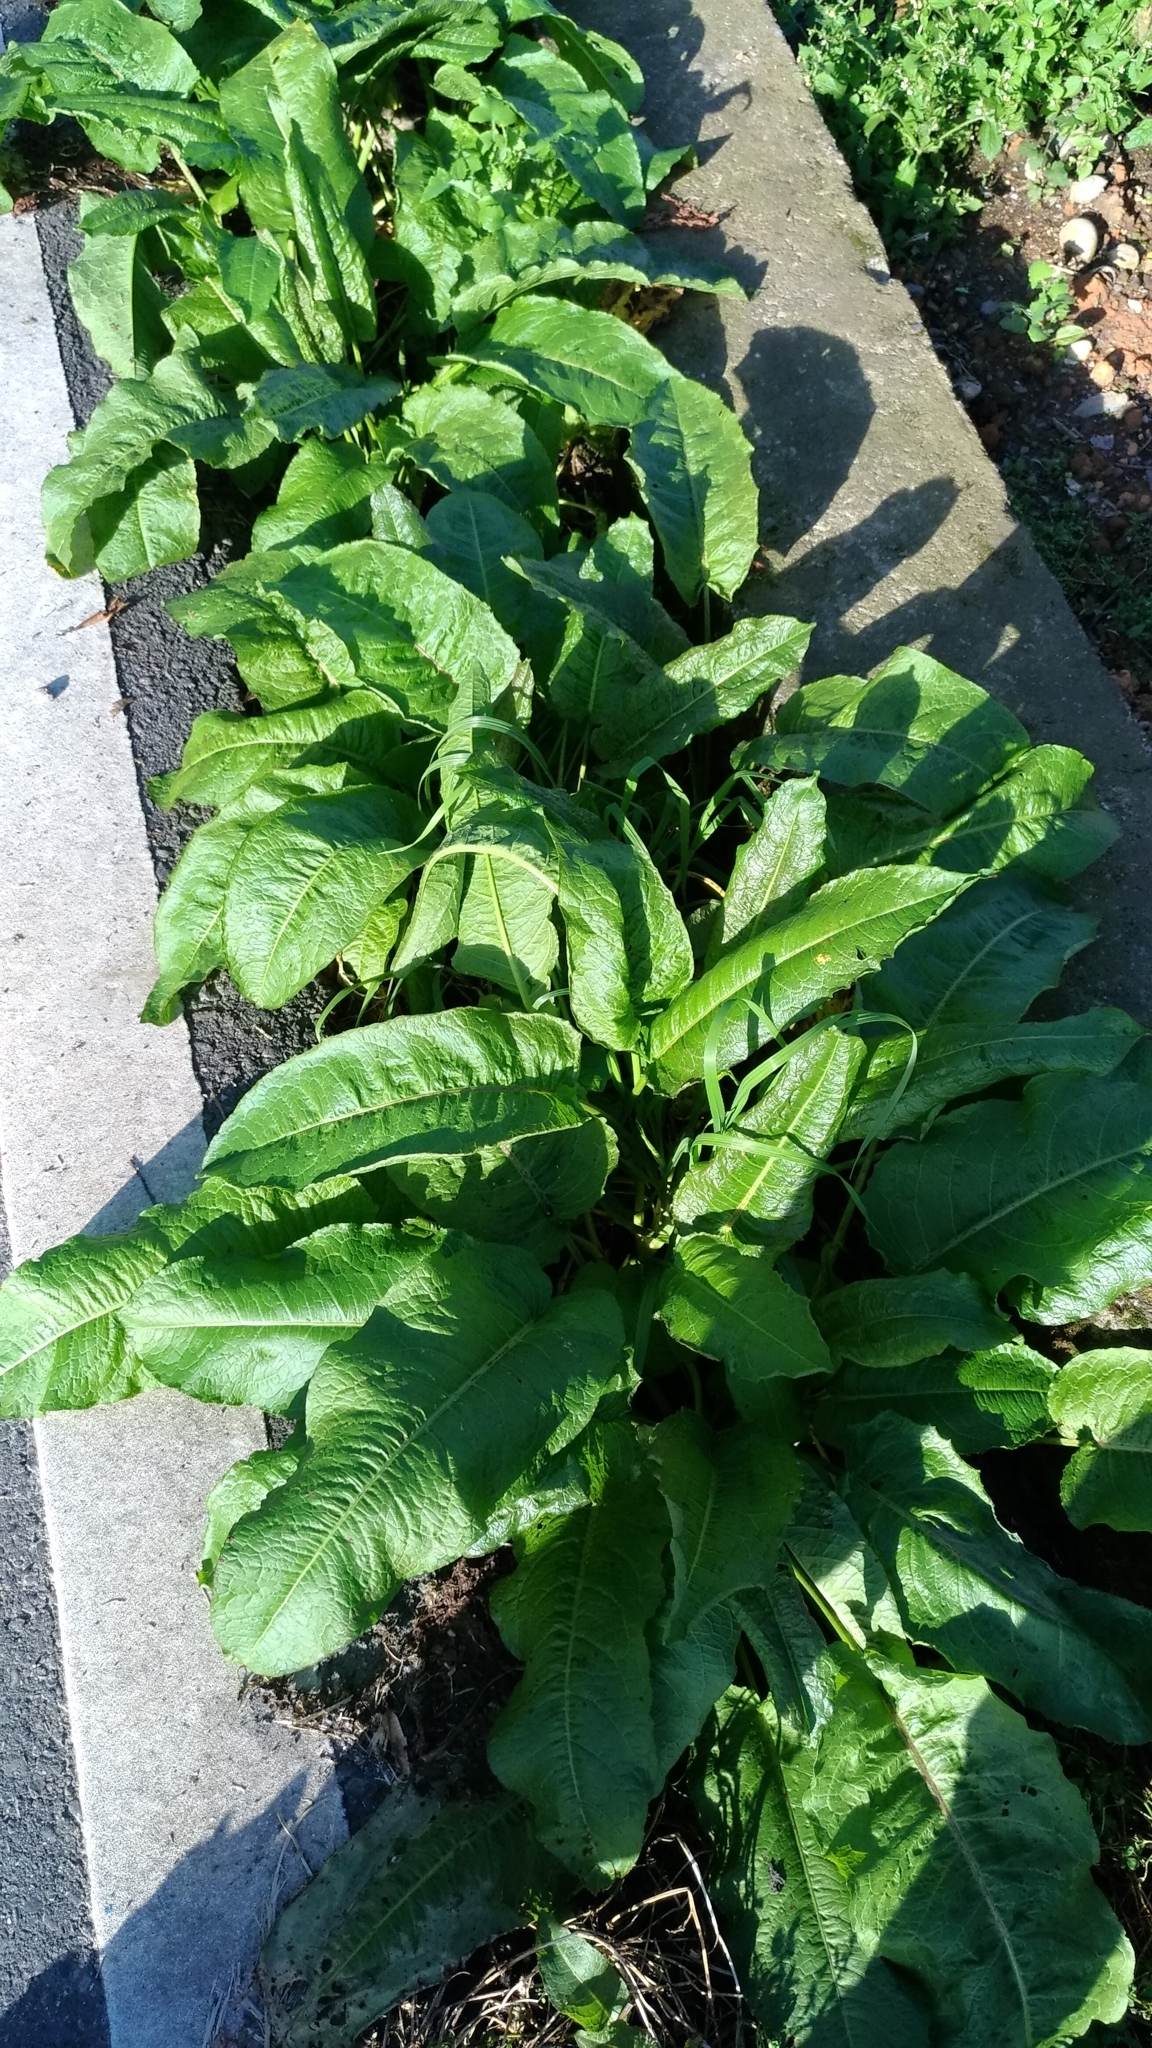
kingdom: Plantae
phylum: Tracheophyta
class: Magnoliopsida
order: Caryophyllales
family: Polygonaceae
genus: Rumex
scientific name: Rumex obtusifolius
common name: Bitter dock
